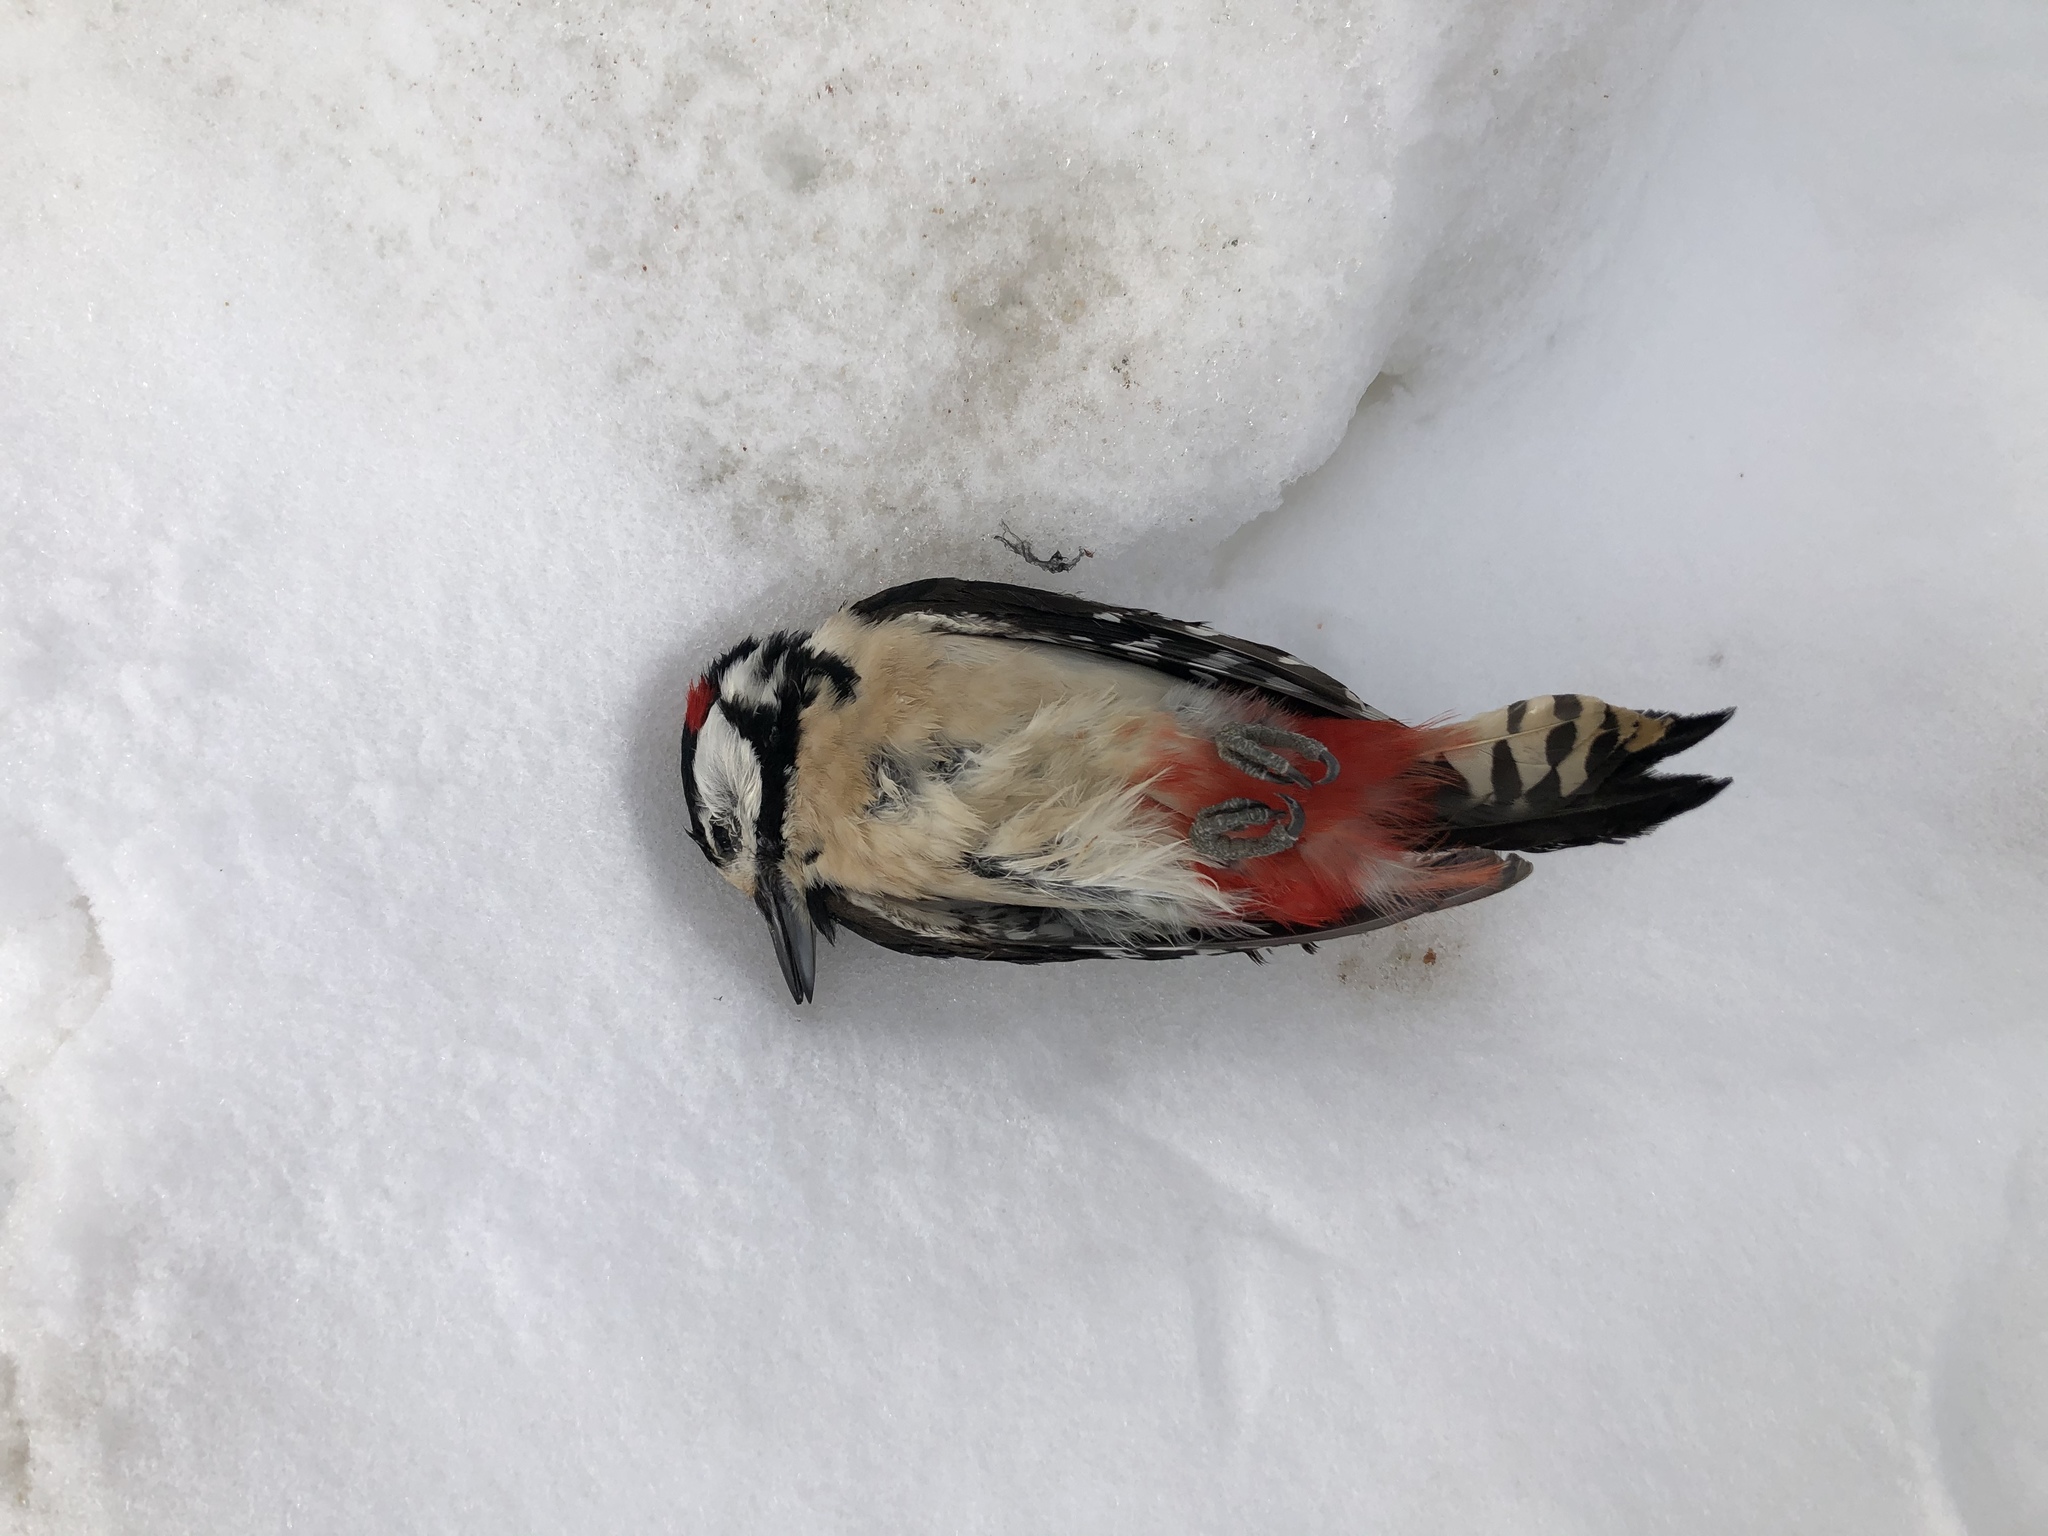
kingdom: Animalia
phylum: Chordata
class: Aves
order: Piciformes
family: Picidae
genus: Dendrocopos
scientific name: Dendrocopos major
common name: Great spotted woodpecker
